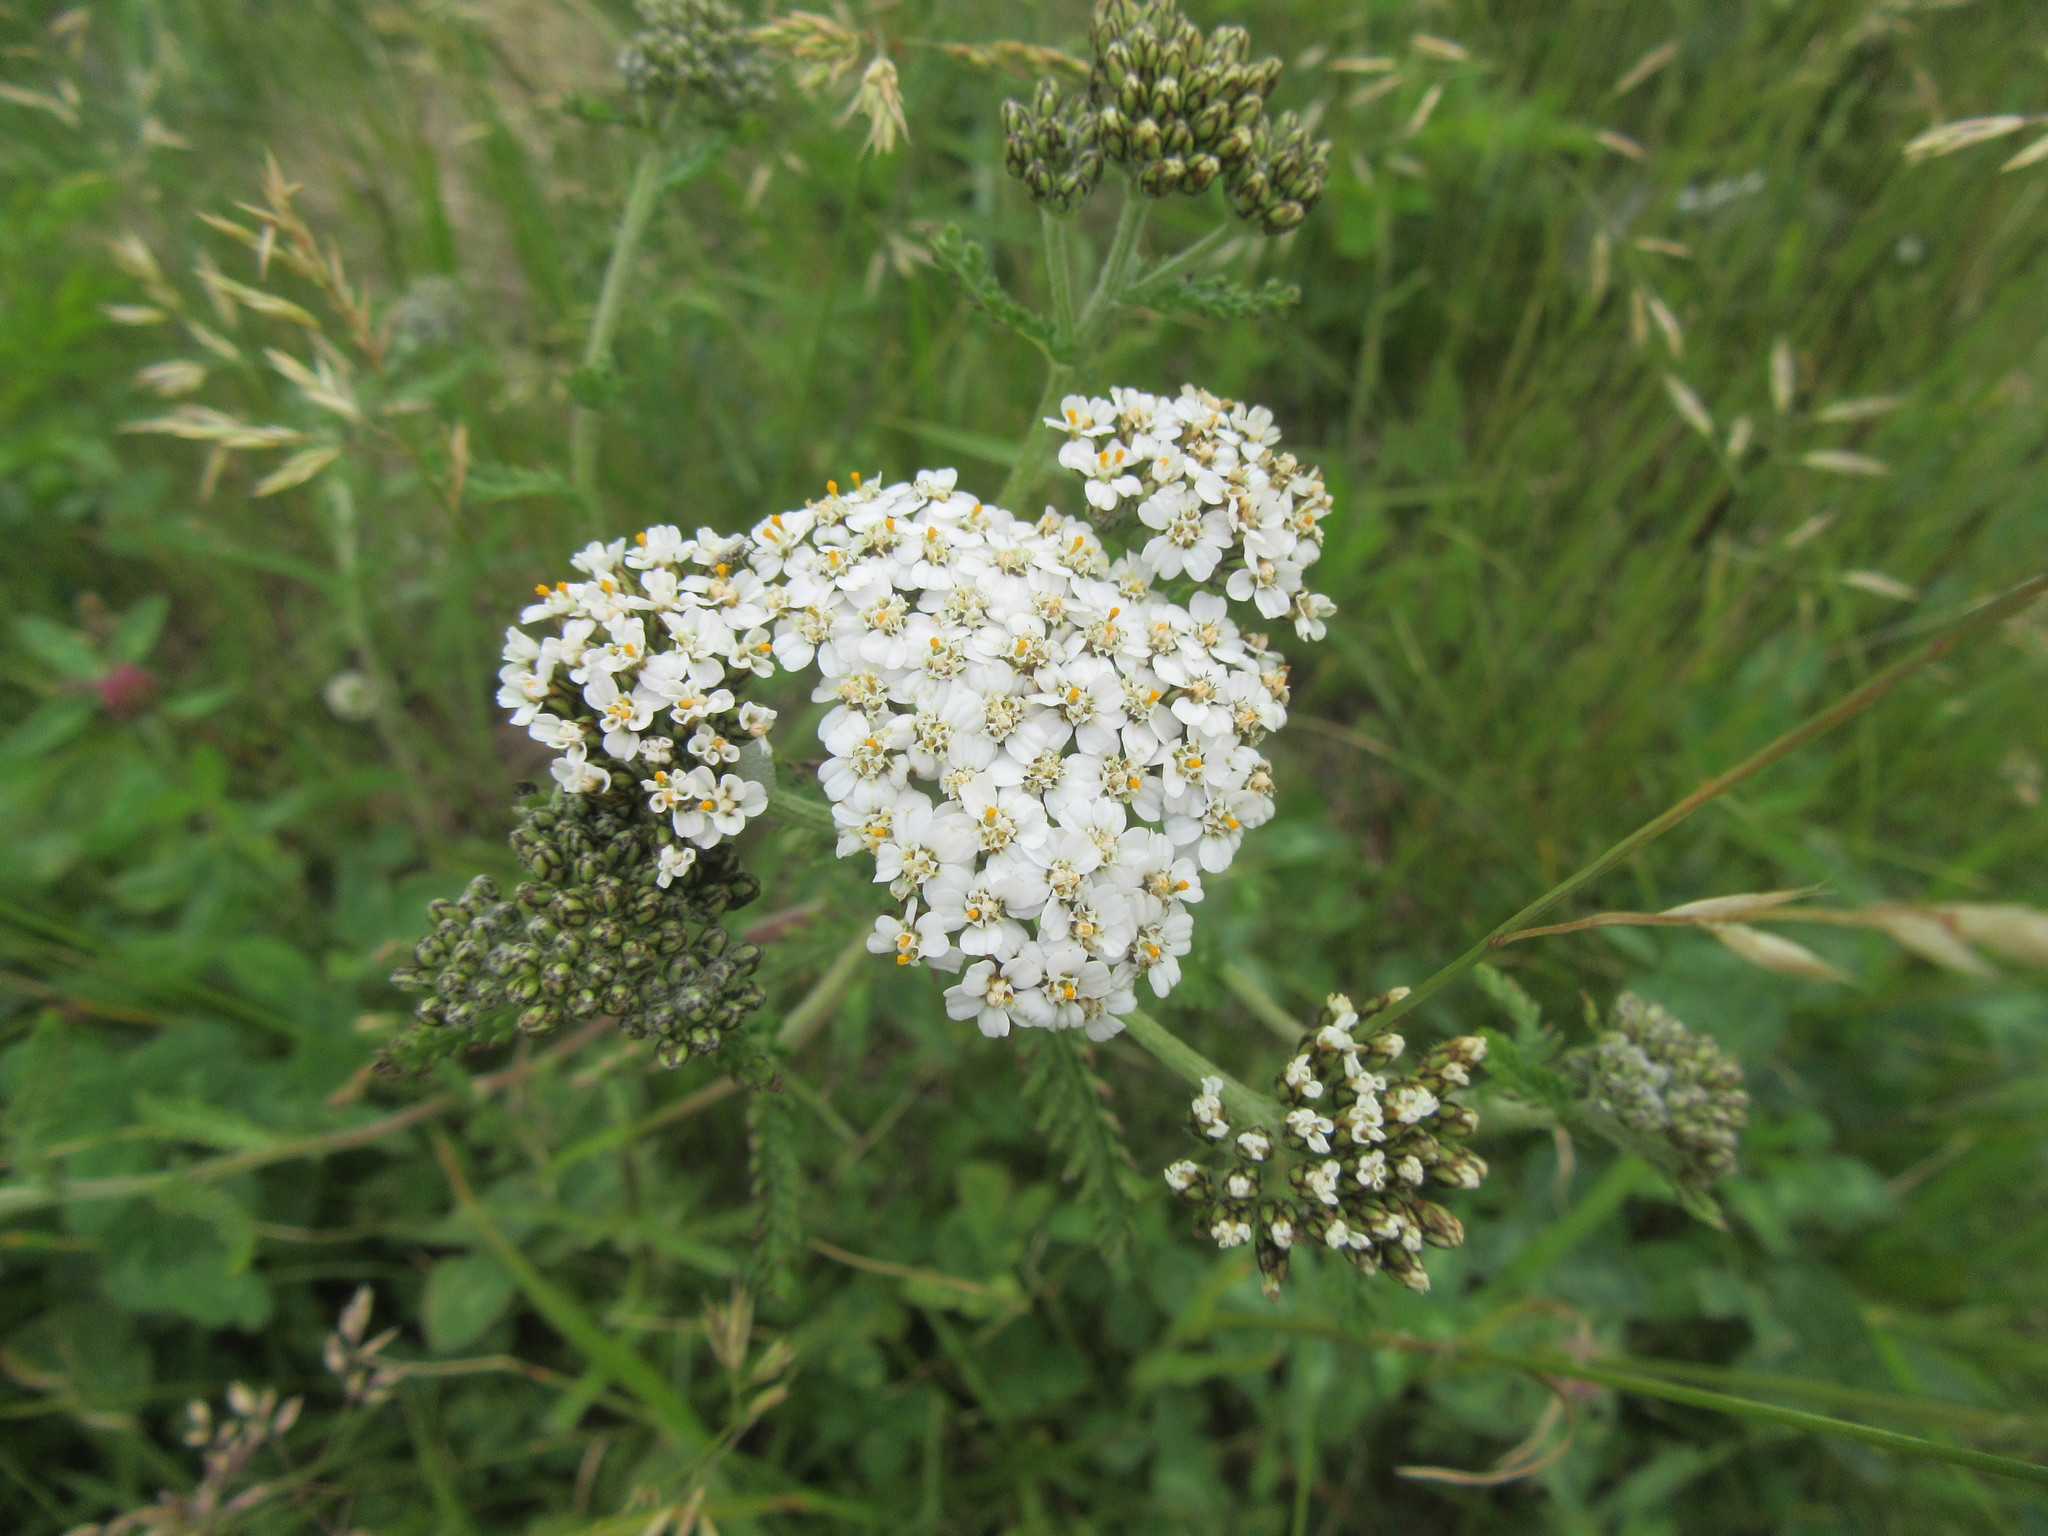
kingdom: Plantae
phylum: Tracheophyta
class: Magnoliopsida
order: Asterales
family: Asteraceae
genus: Achillea
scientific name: Achillea millefolium
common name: Yarrow
